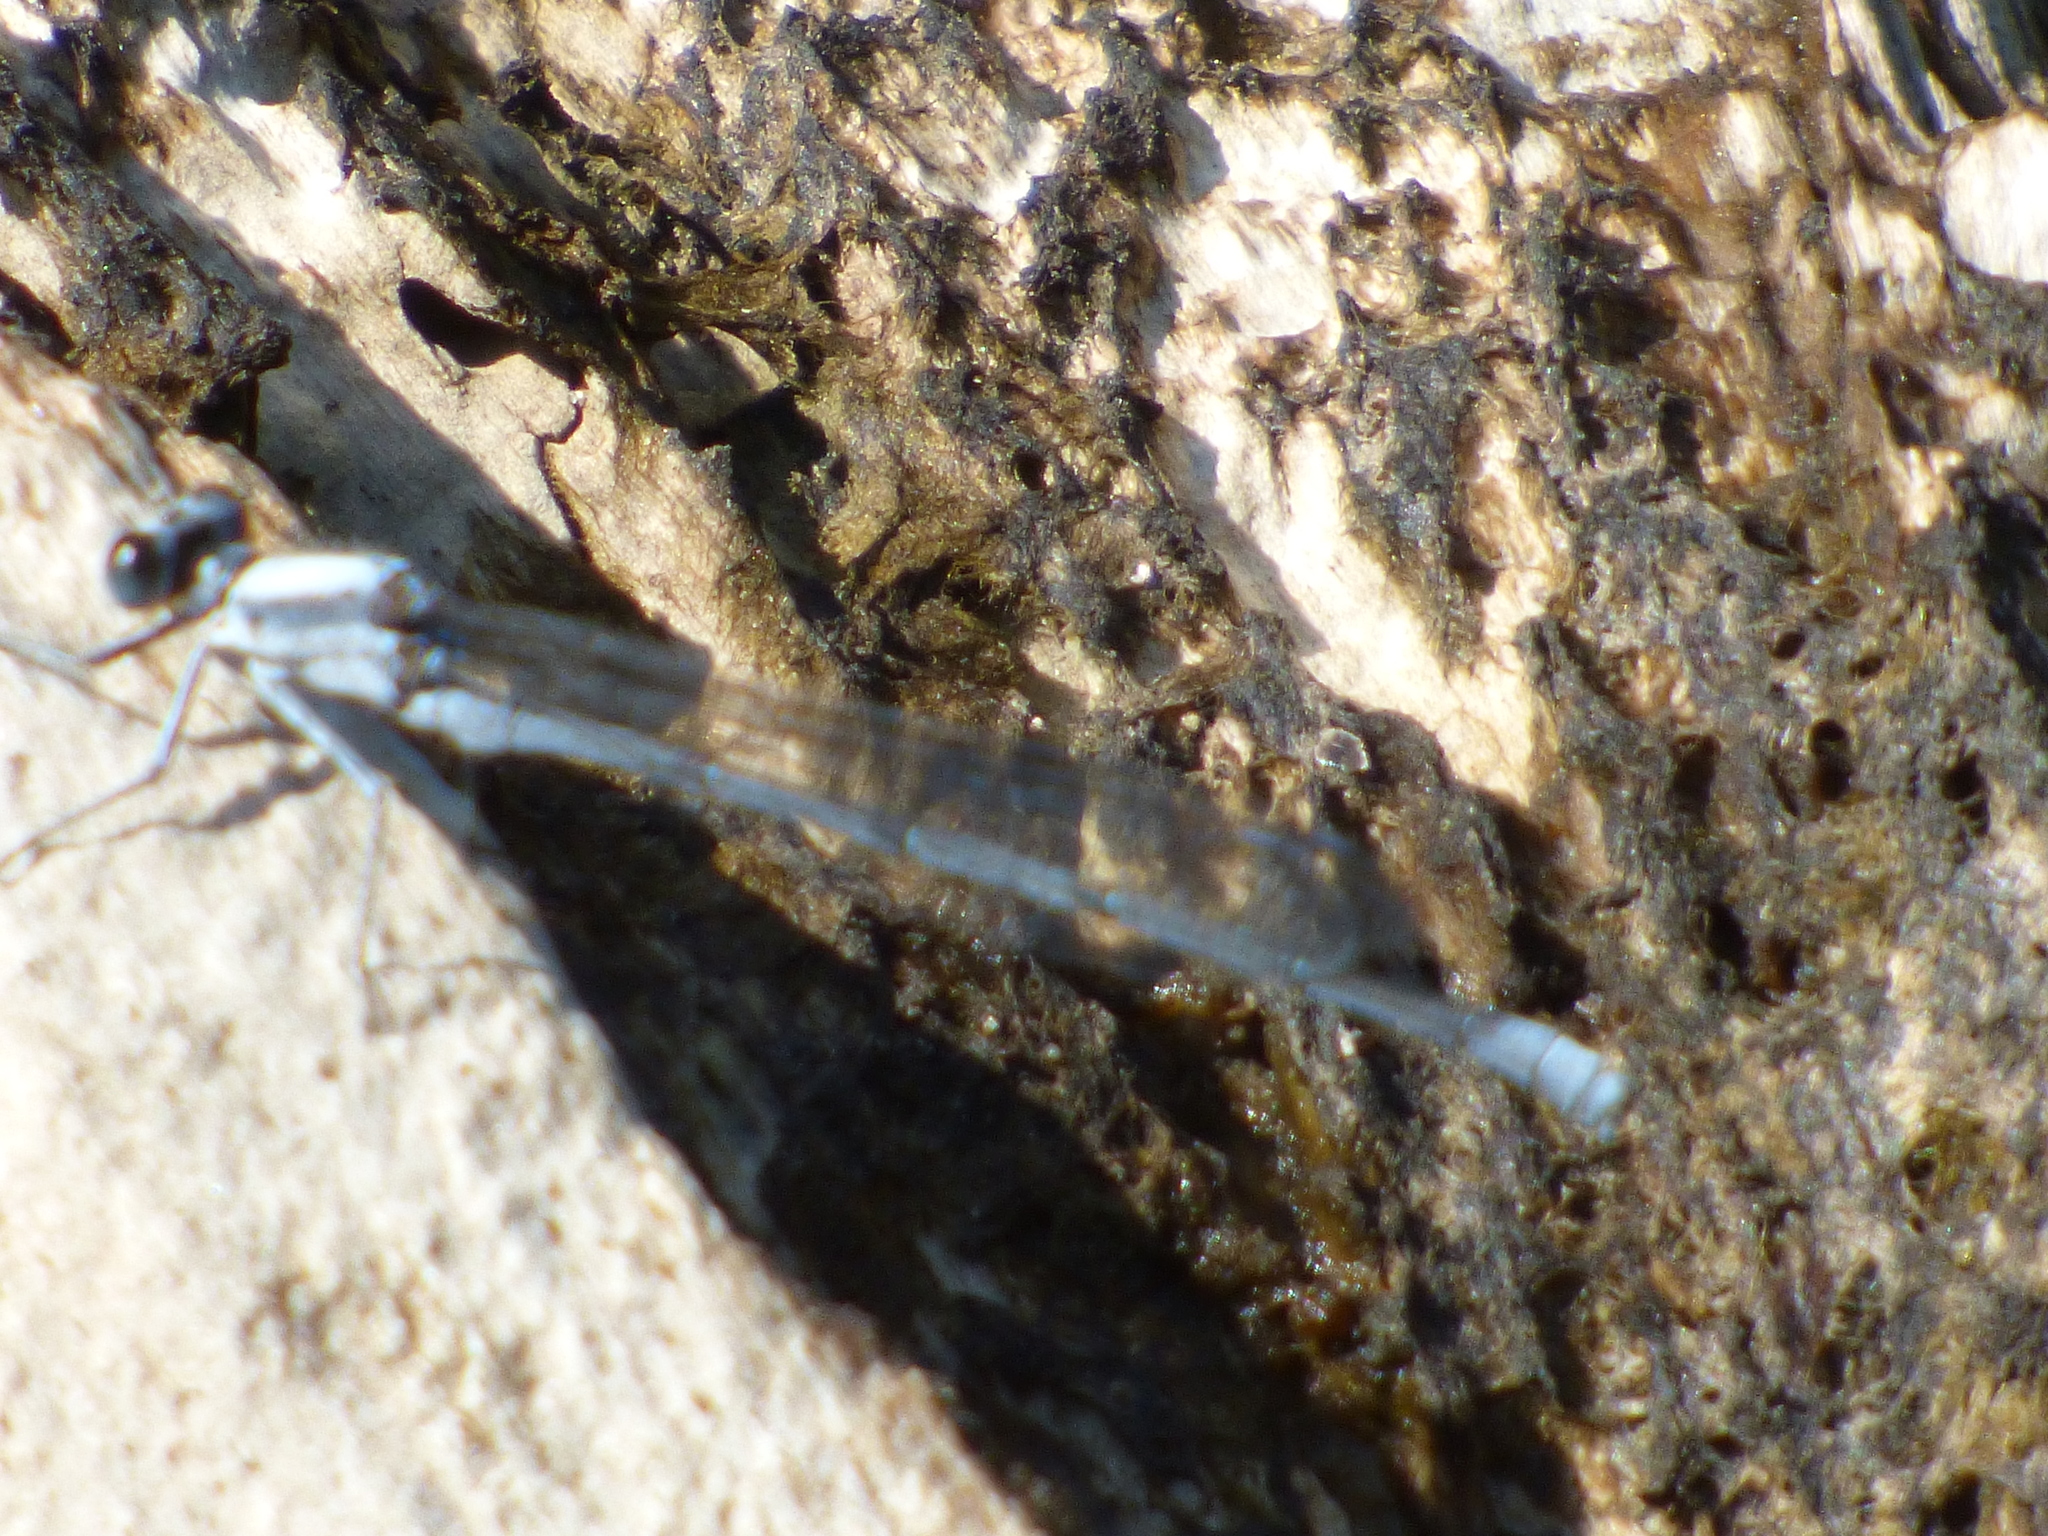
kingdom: Animalia
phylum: Arthropoda
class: Insecta
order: Odonata
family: Coenagrionidae
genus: Argia
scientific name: Argia moesta
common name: Powdered dancer
